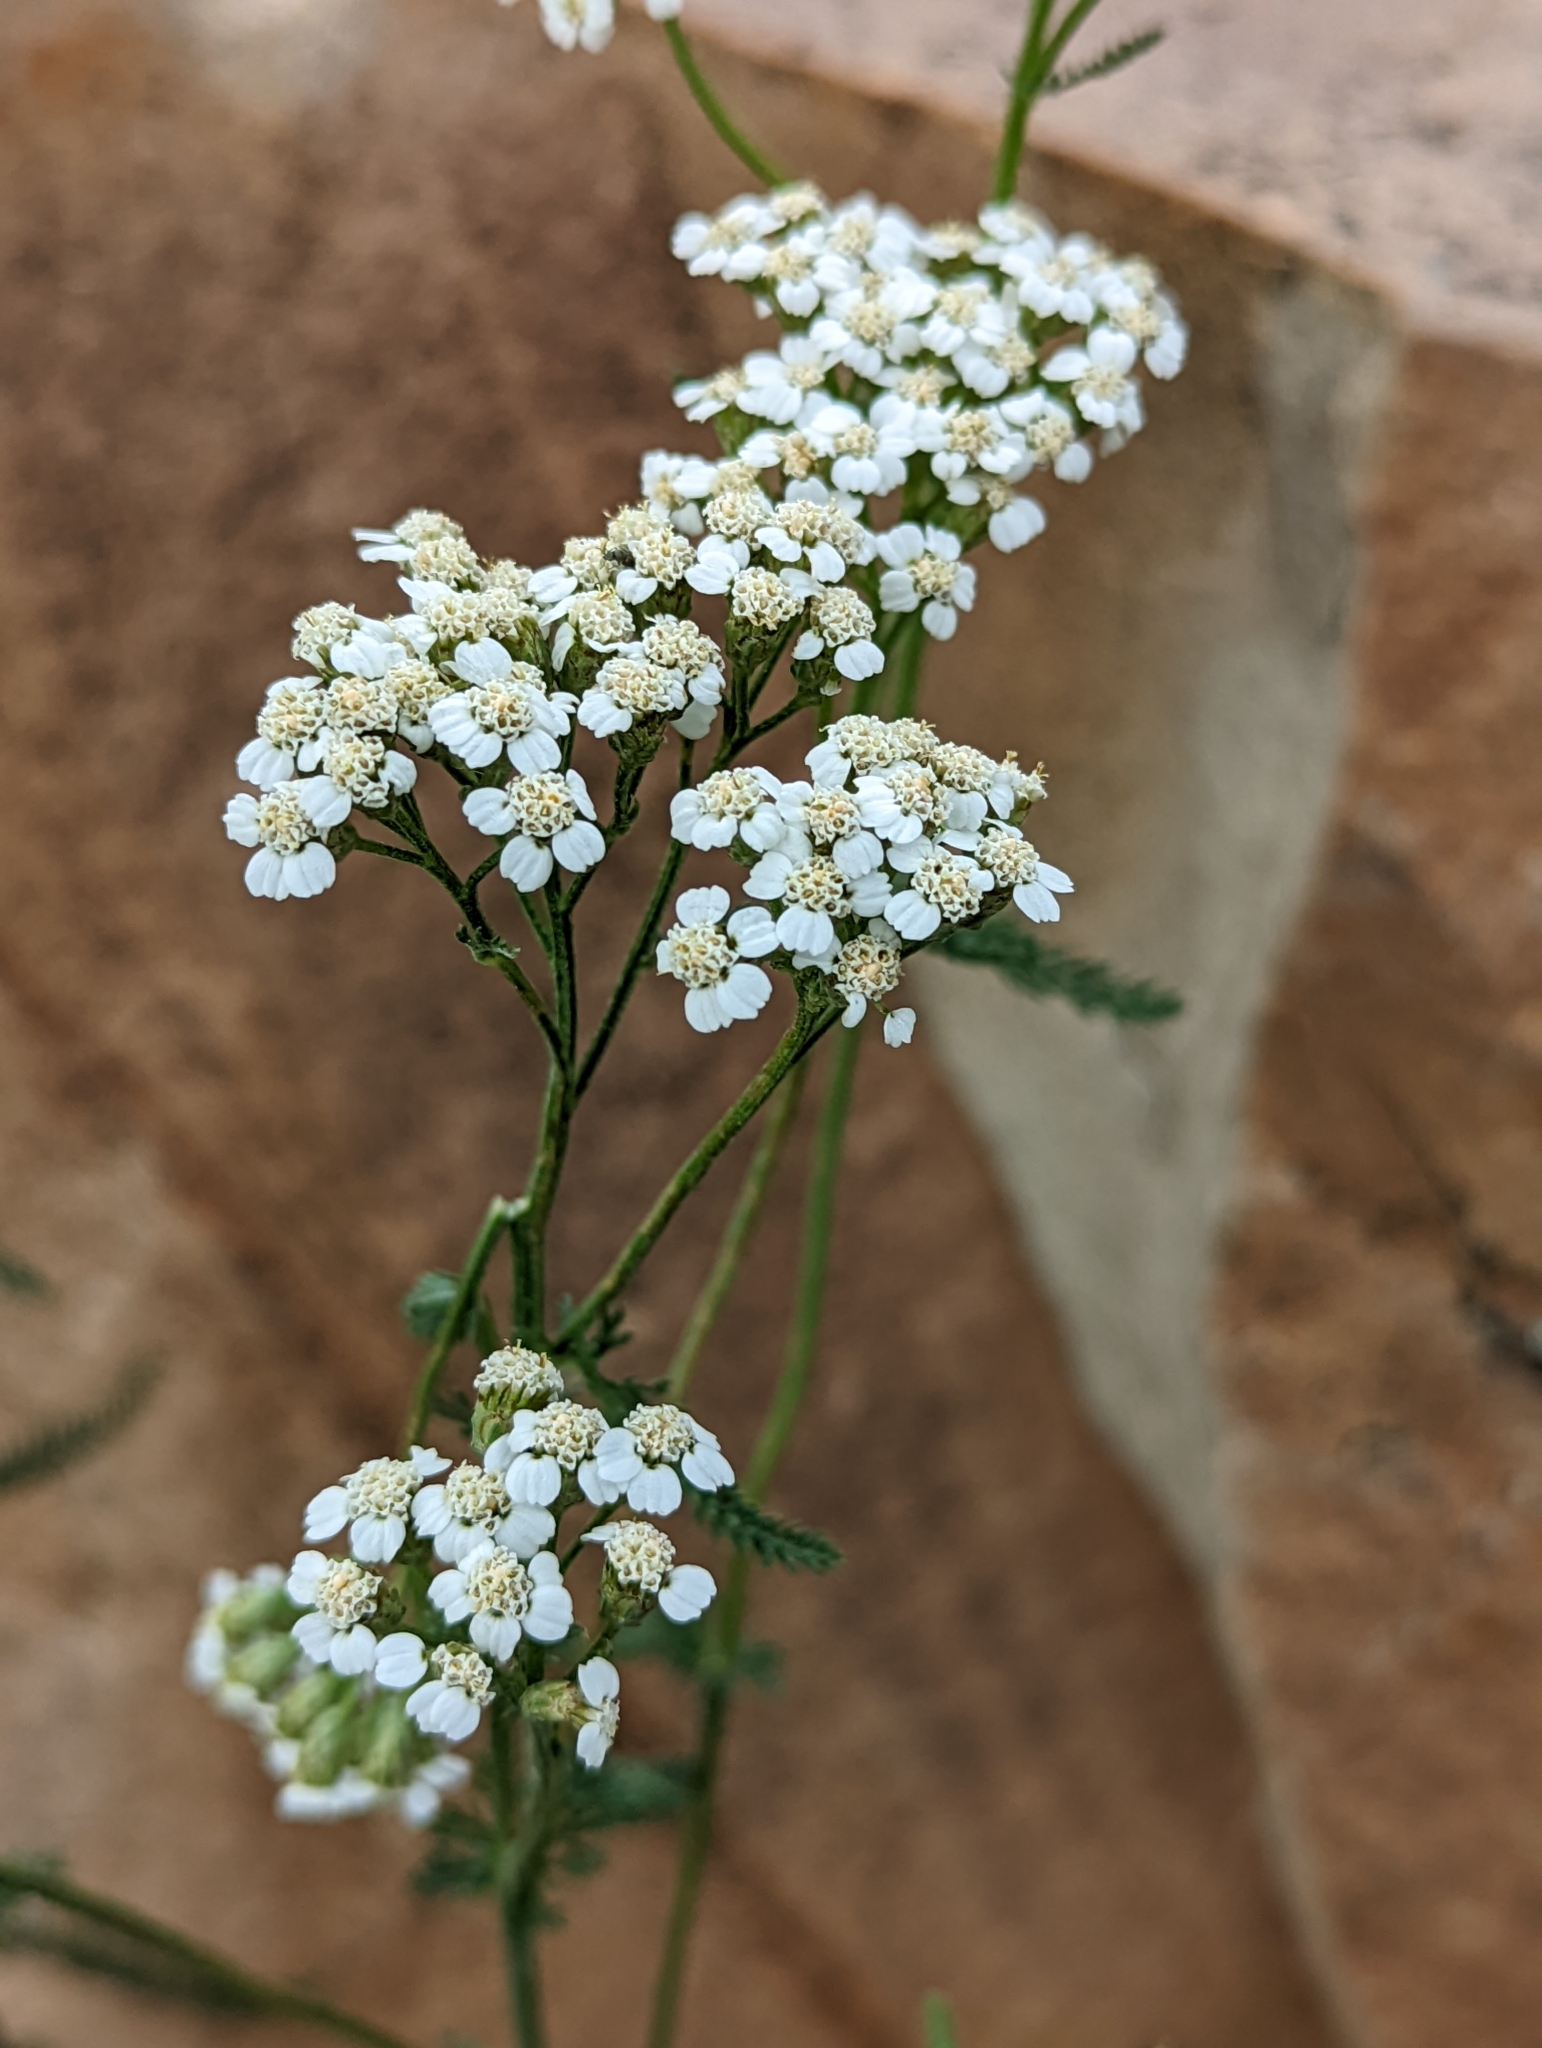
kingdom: Plantae
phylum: Tracheophyta
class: Magnoliopsida
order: Asterales
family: Asteraceae
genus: Achillea
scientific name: Achillea millefolium
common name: Yarrow
